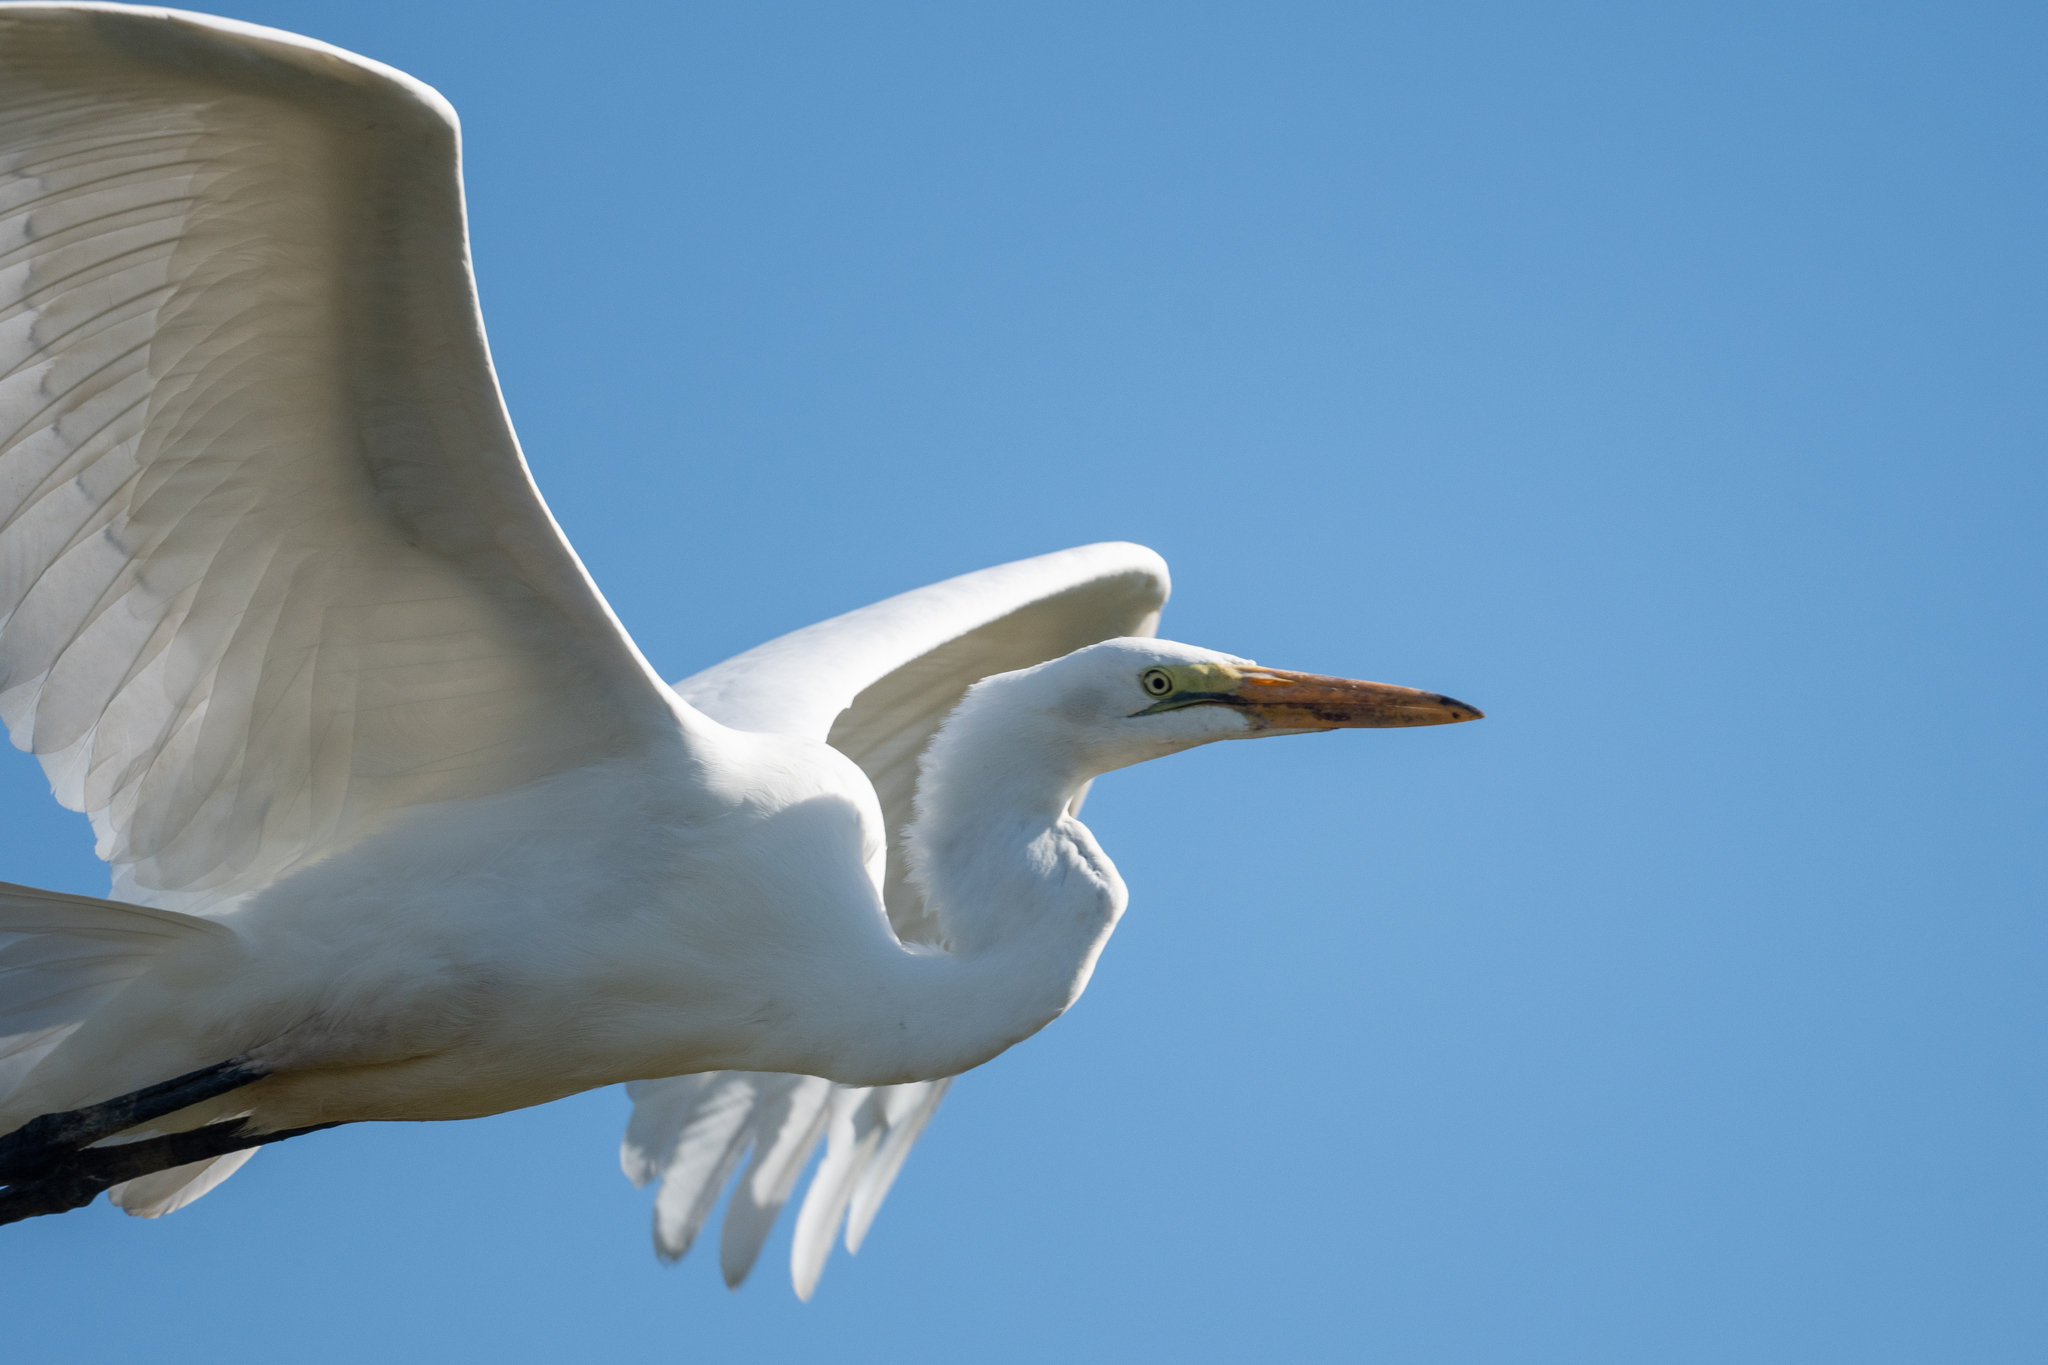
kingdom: Animalia
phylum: Chordata
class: Aves
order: Pelecaniformes
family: Ardeidae
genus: Ardea
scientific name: Ardea alba
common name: Great egret
